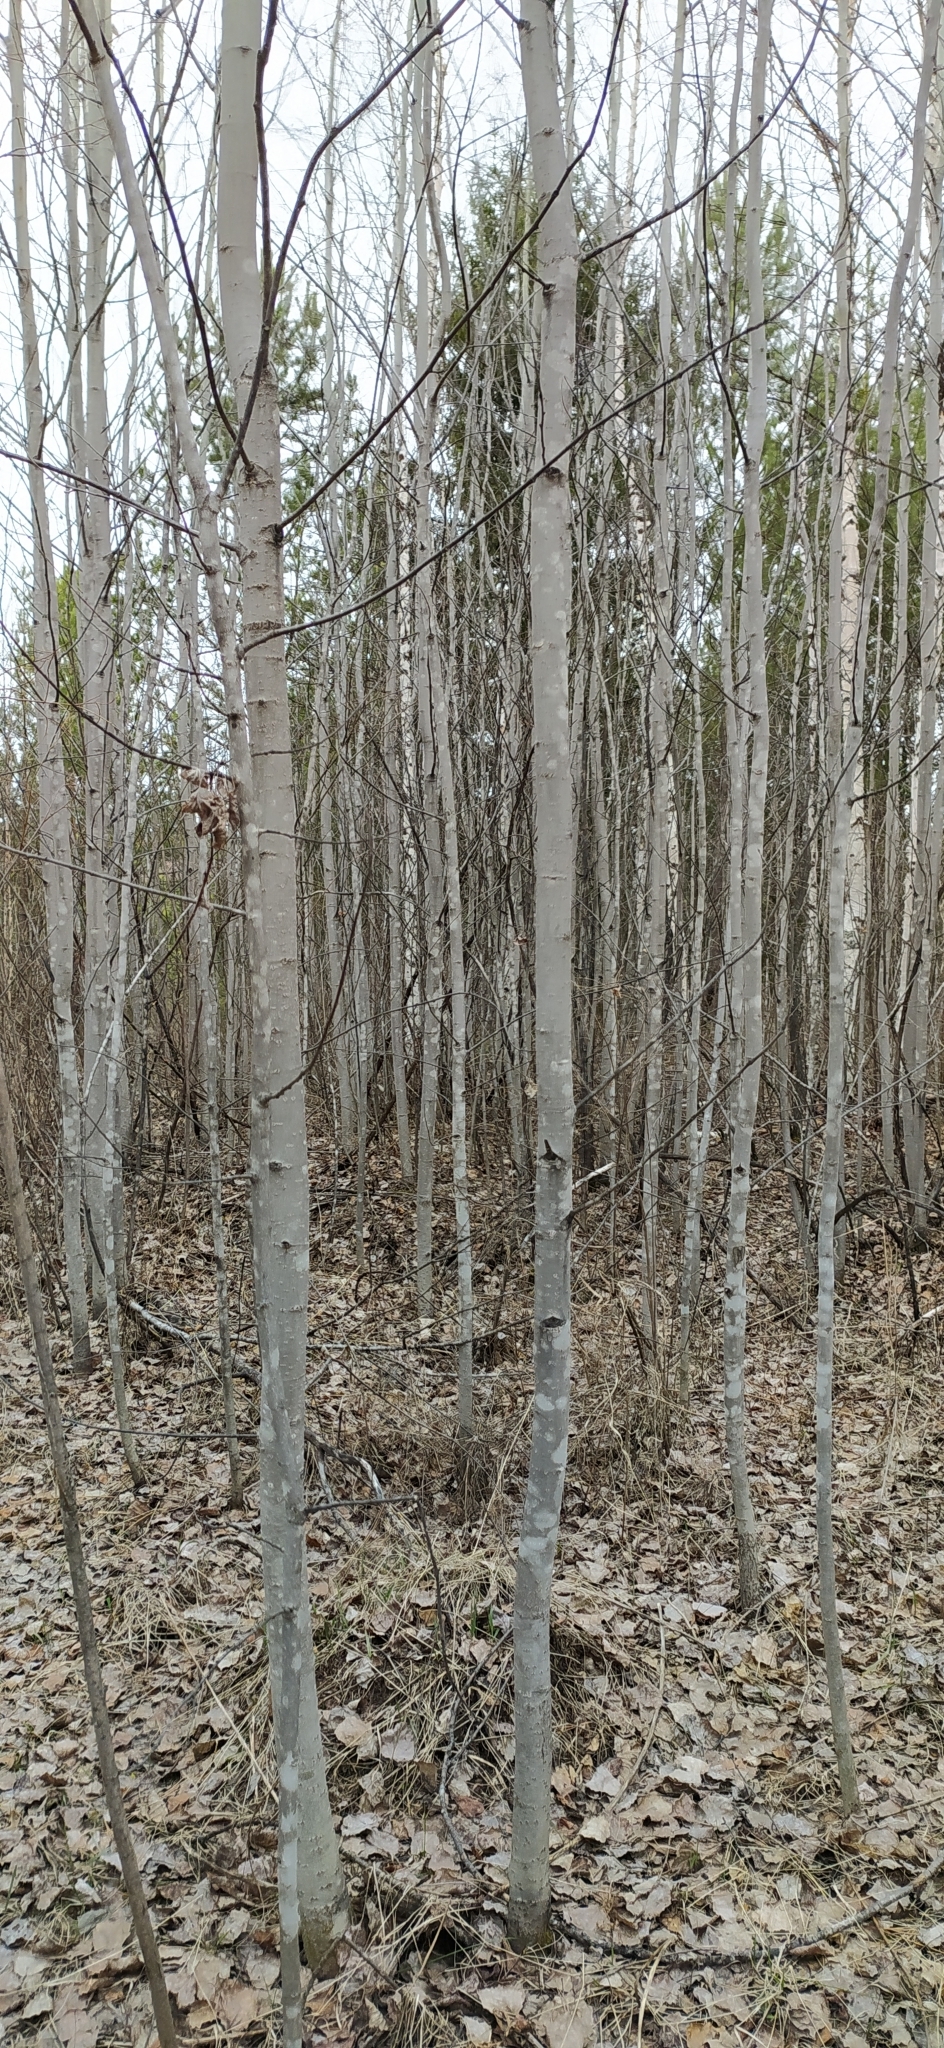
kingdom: Plantae
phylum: Tracheophyta
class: Magnoliopsida
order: Malpighiales
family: Salicaceae
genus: Populus
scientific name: Populus tremula
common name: European aspen
